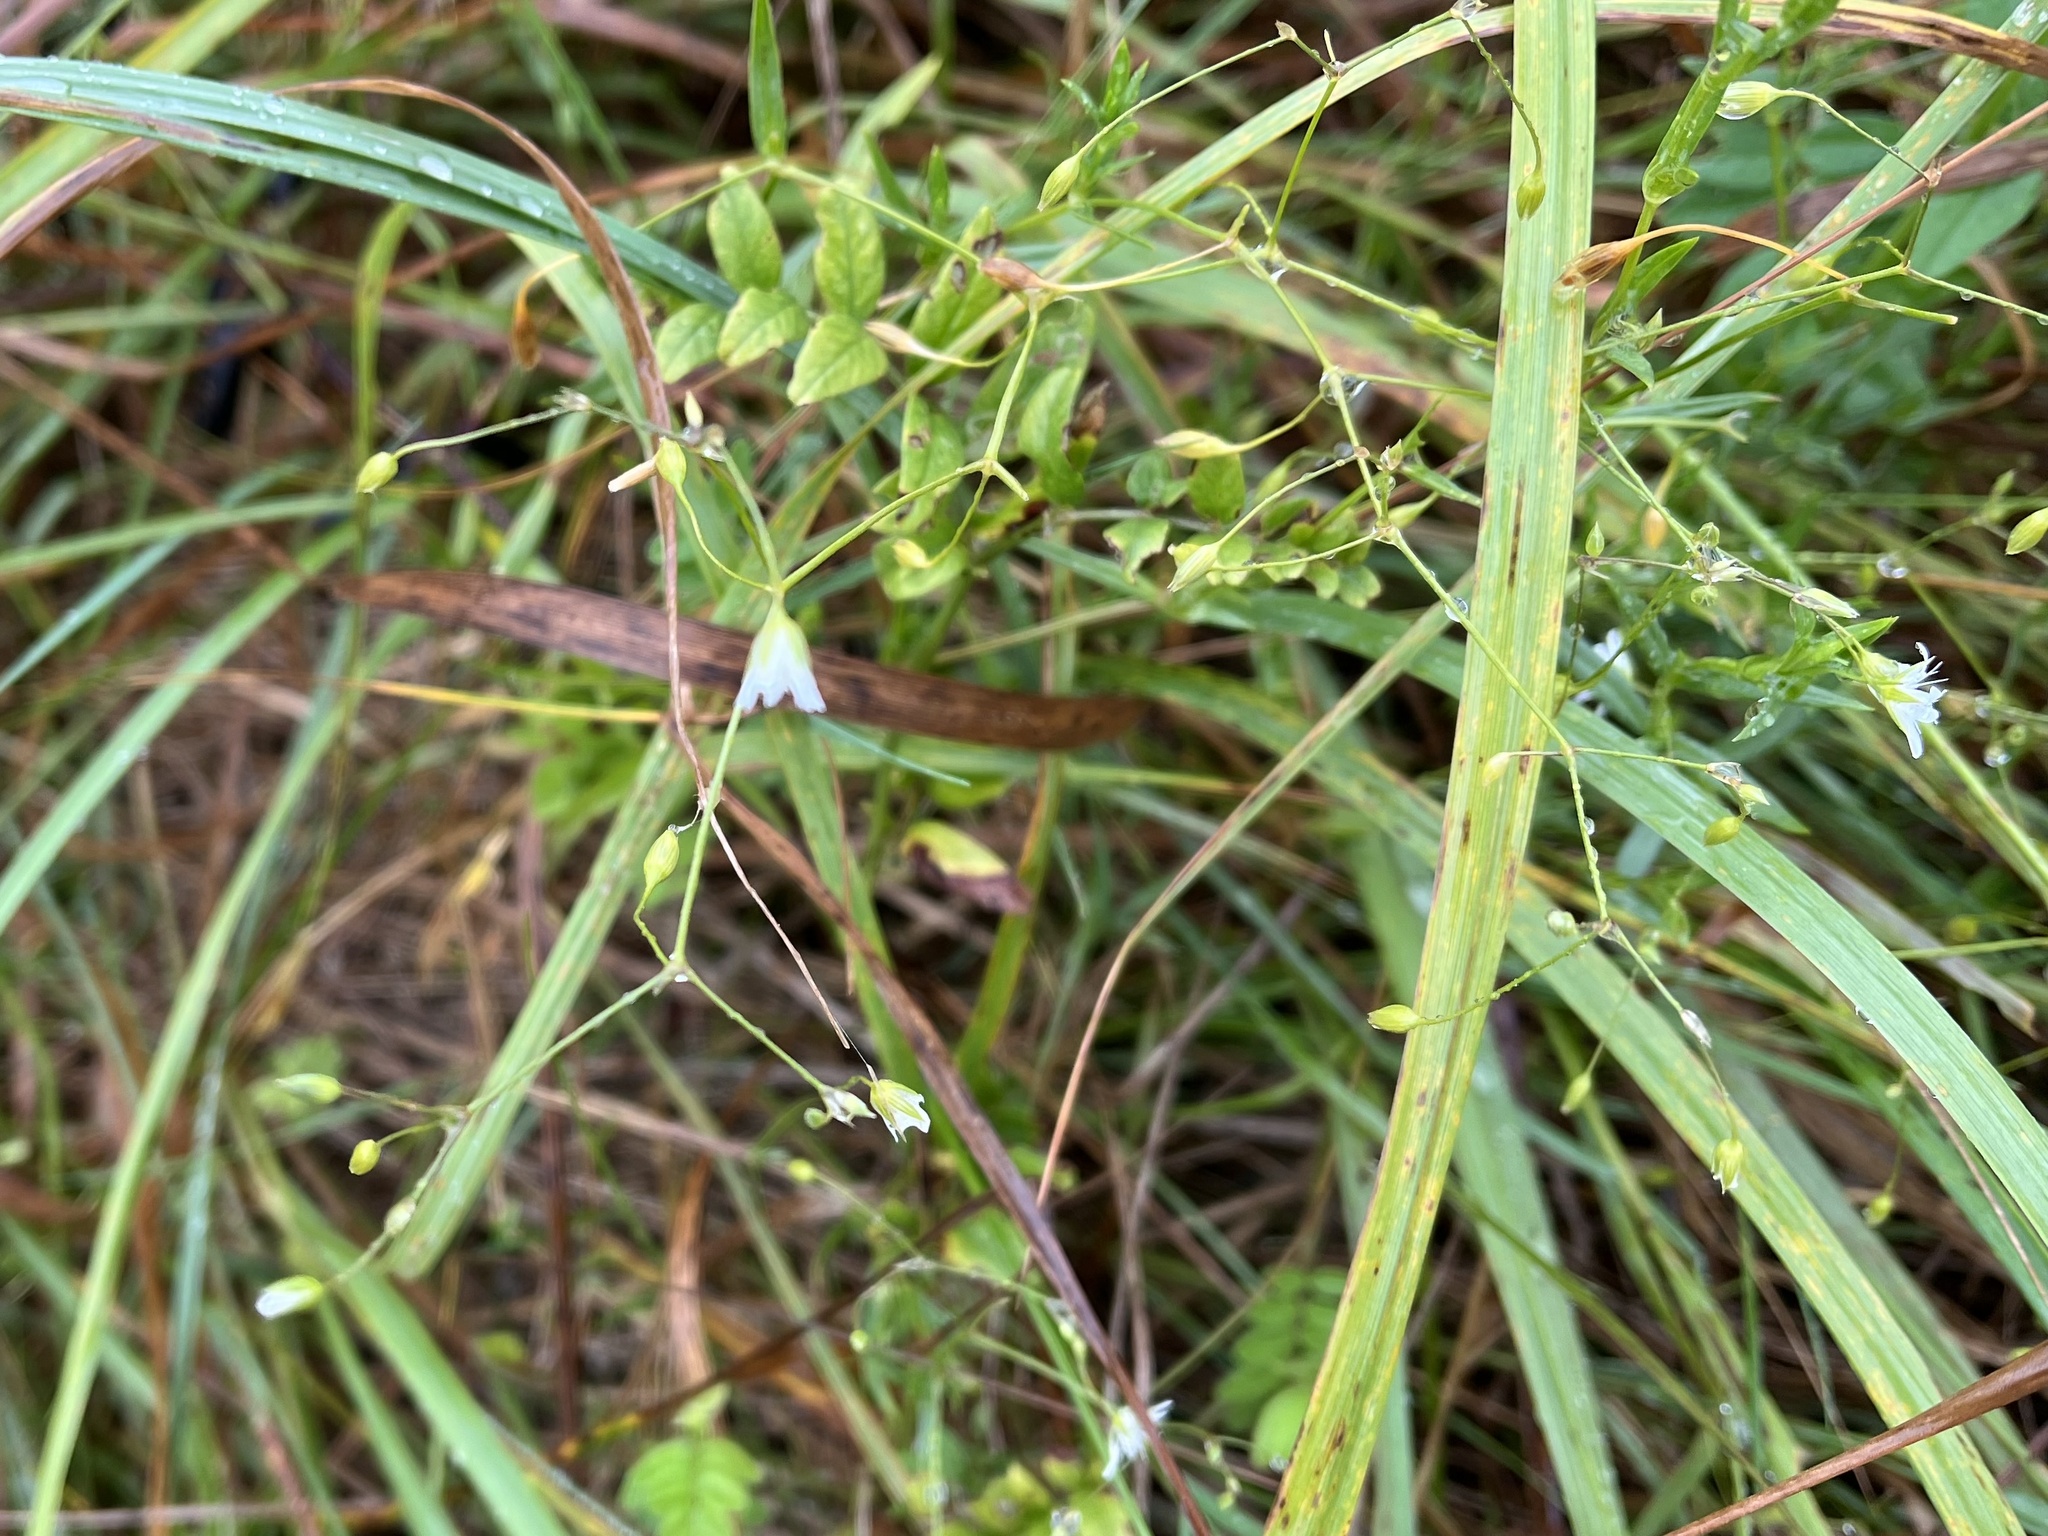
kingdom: Plantae
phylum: Tracheophyta
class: Magnoliopsida
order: Caryophyllales
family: Caryophyllaceae
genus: Stellaria
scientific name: Stellaria graminea
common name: Grass-like starwort
